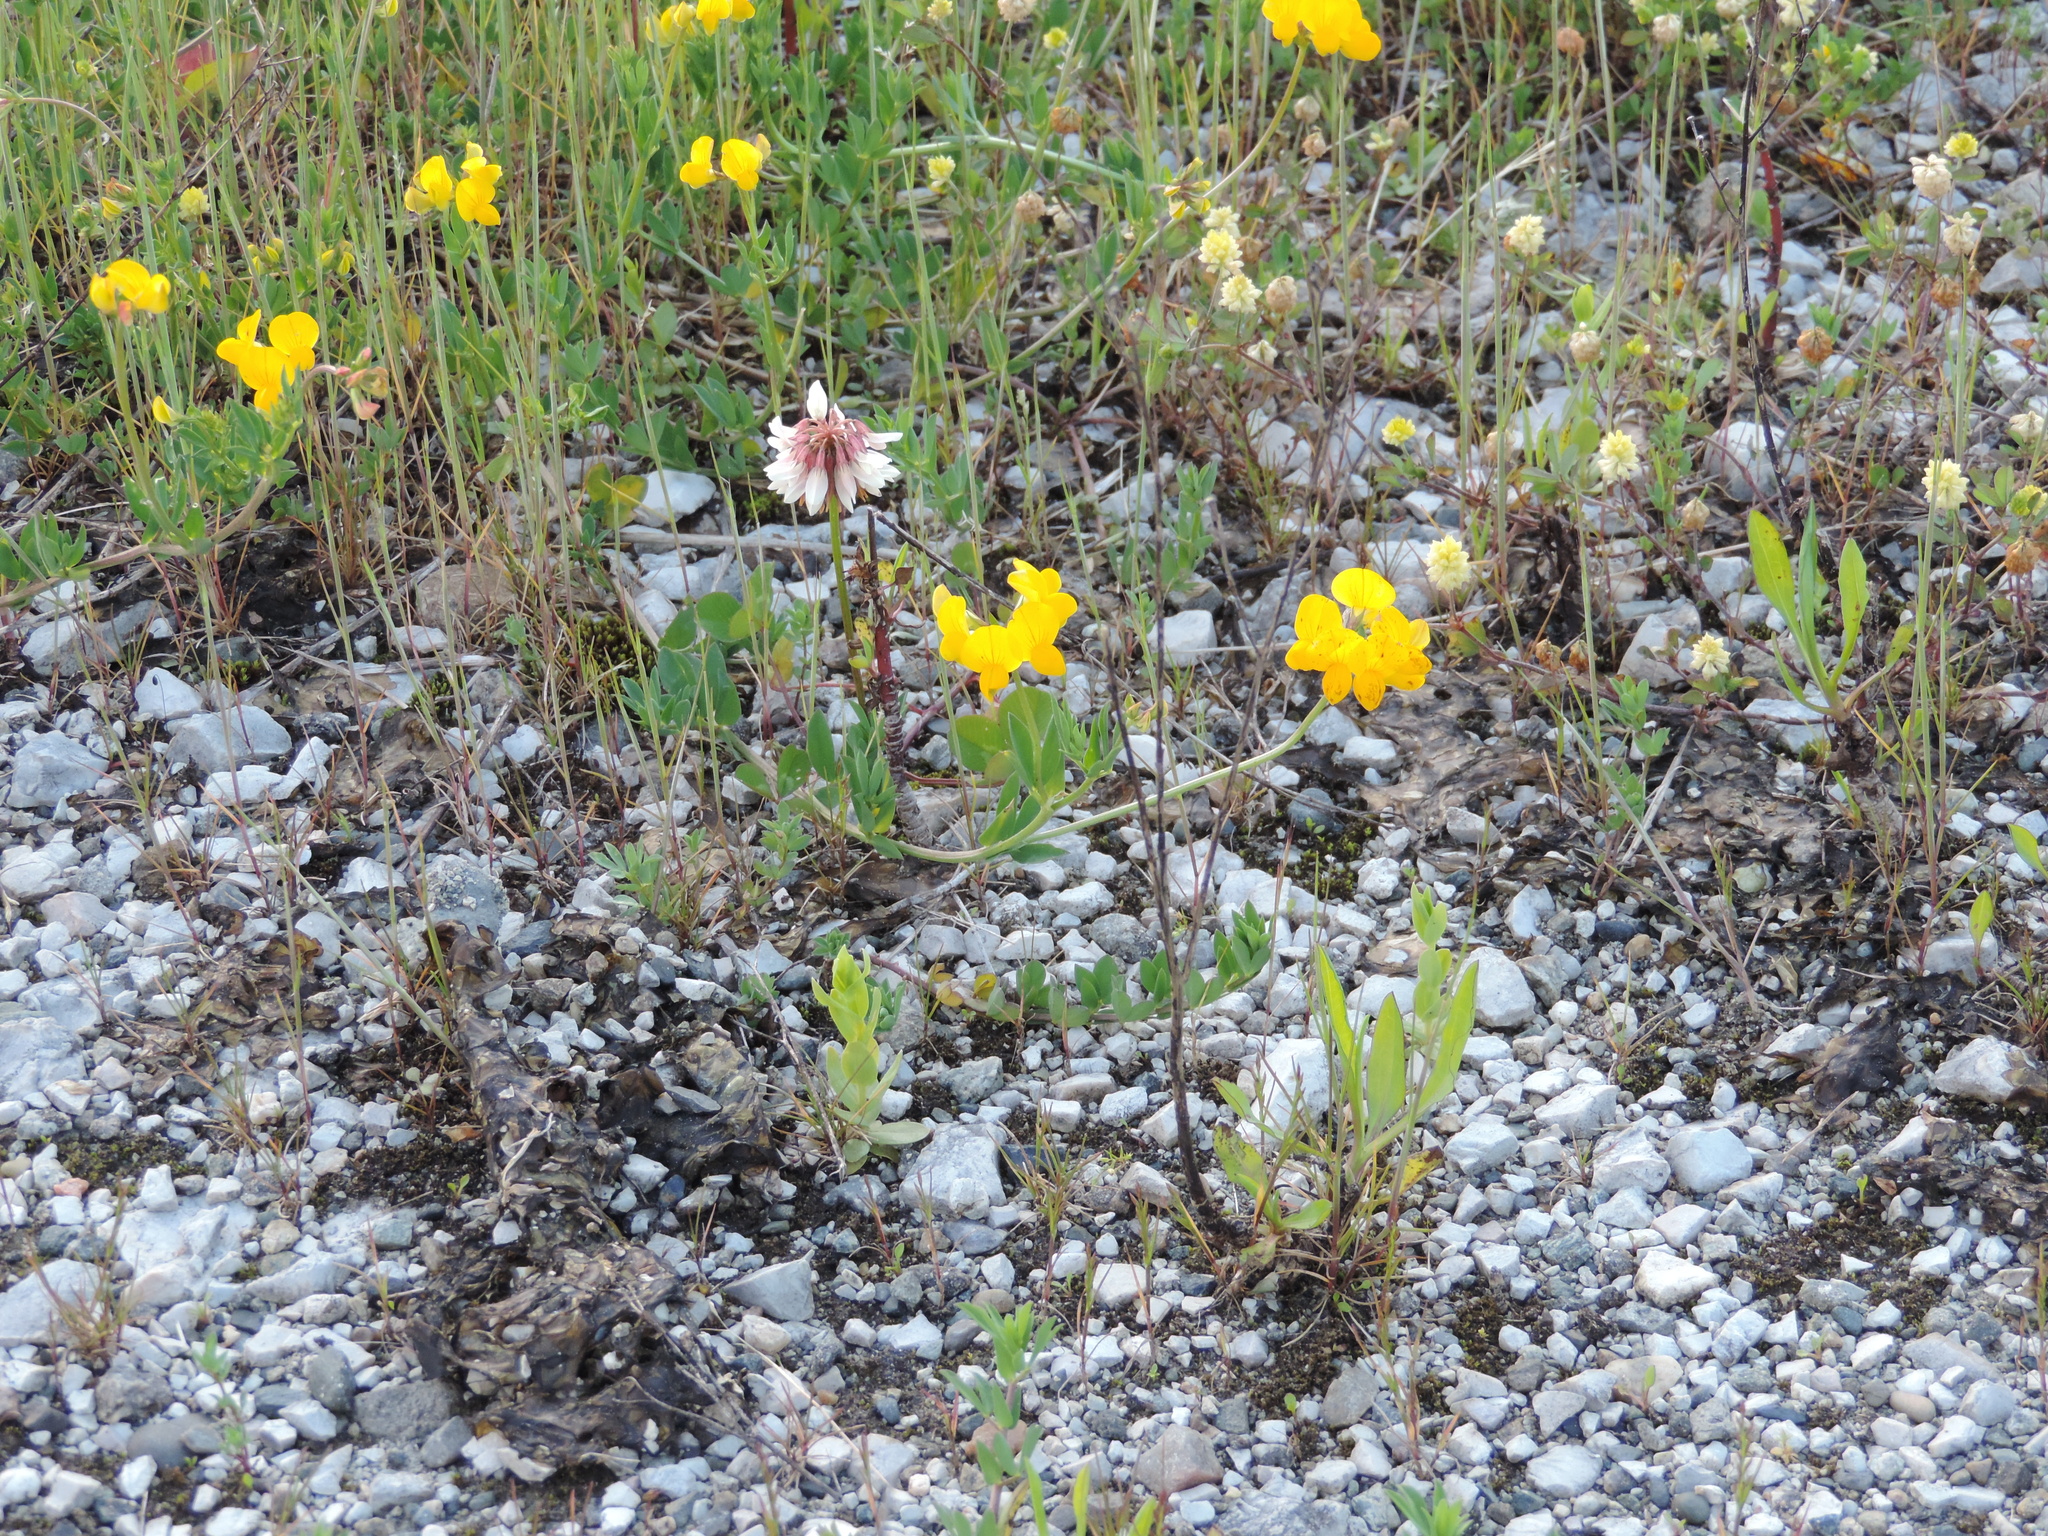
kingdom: Plantae
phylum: Tracheophyta
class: Magnoliopsida
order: Fabales
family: Fabaceae
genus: Lotus
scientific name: Lotus corniculatus
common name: Common bird's-foot-trefoil
